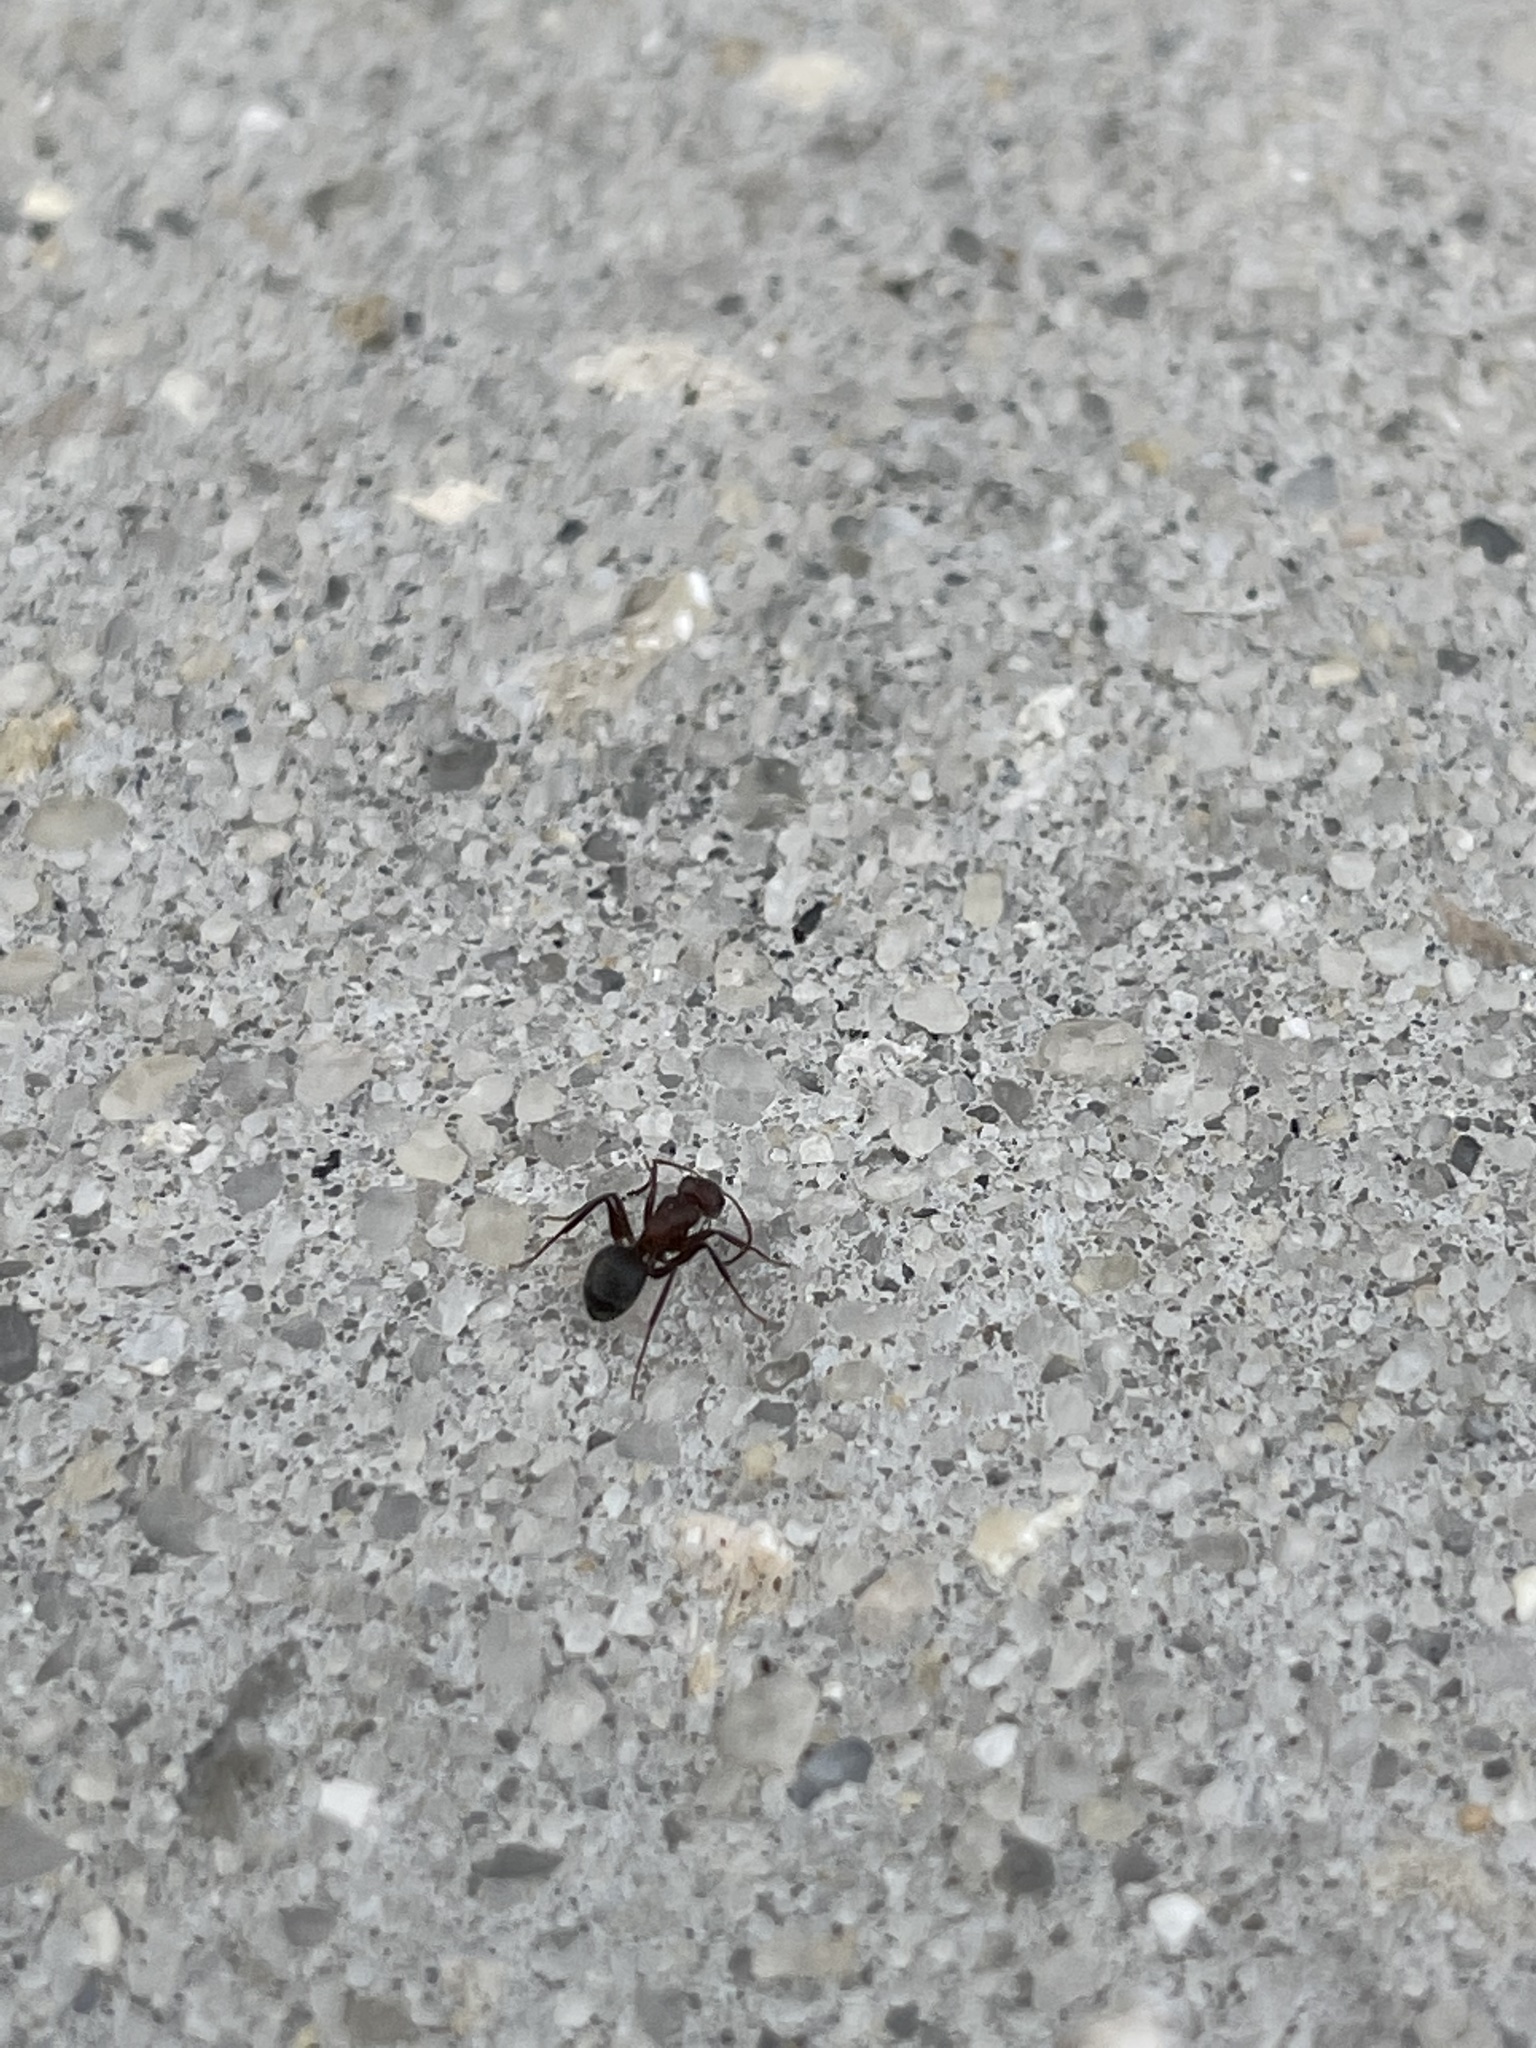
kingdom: Animalia
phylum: Arthropoda
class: Insecta
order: Hymenoptera
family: Formicidae
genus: Camponotus
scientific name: Camponotus planatus
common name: Compact carpenter ant
